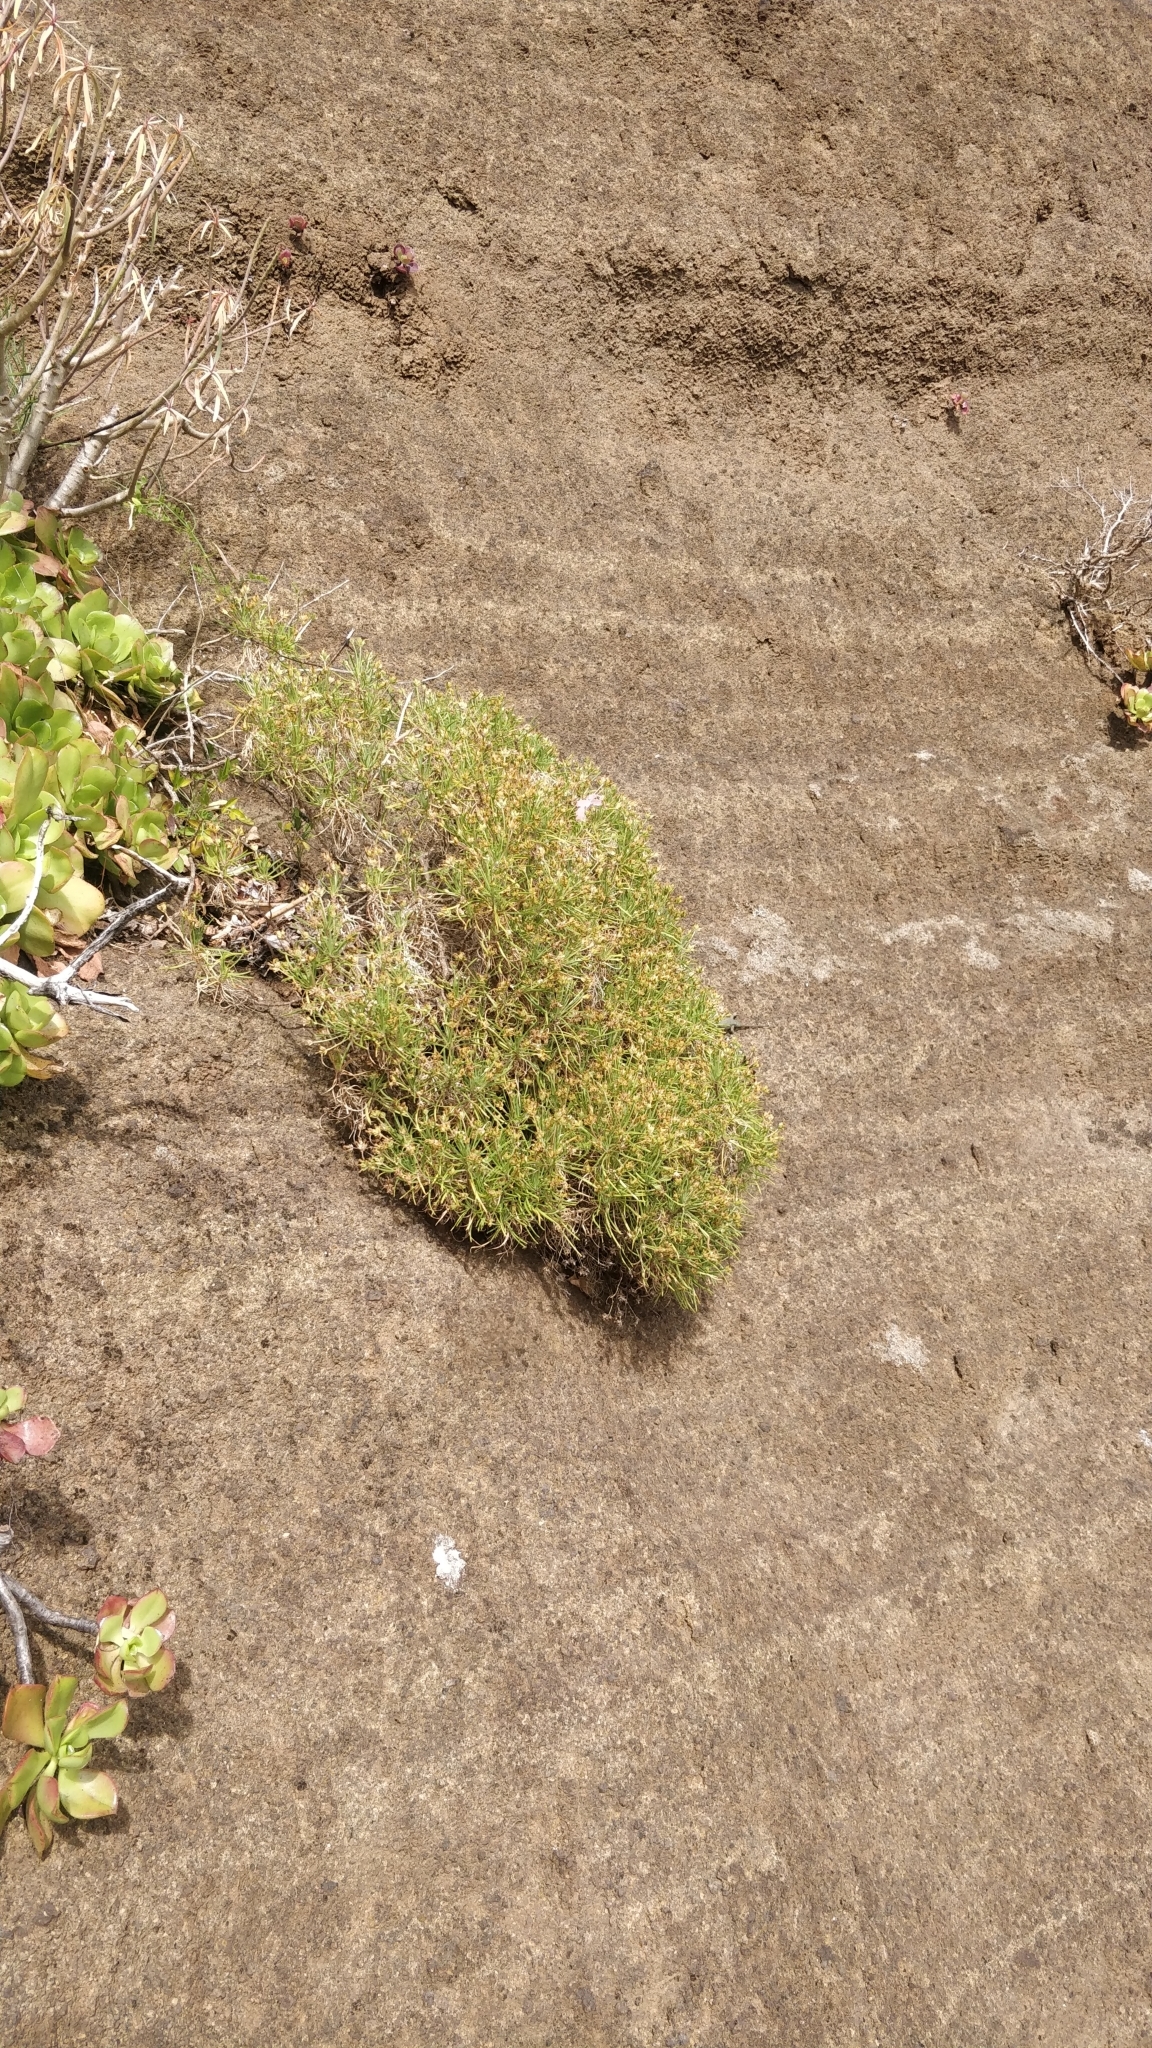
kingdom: Plantae
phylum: Tracheophyta
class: Magnoliopsida
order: Lamiales
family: Plantaginaceae
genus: Plantago
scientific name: Plantago arborescens
